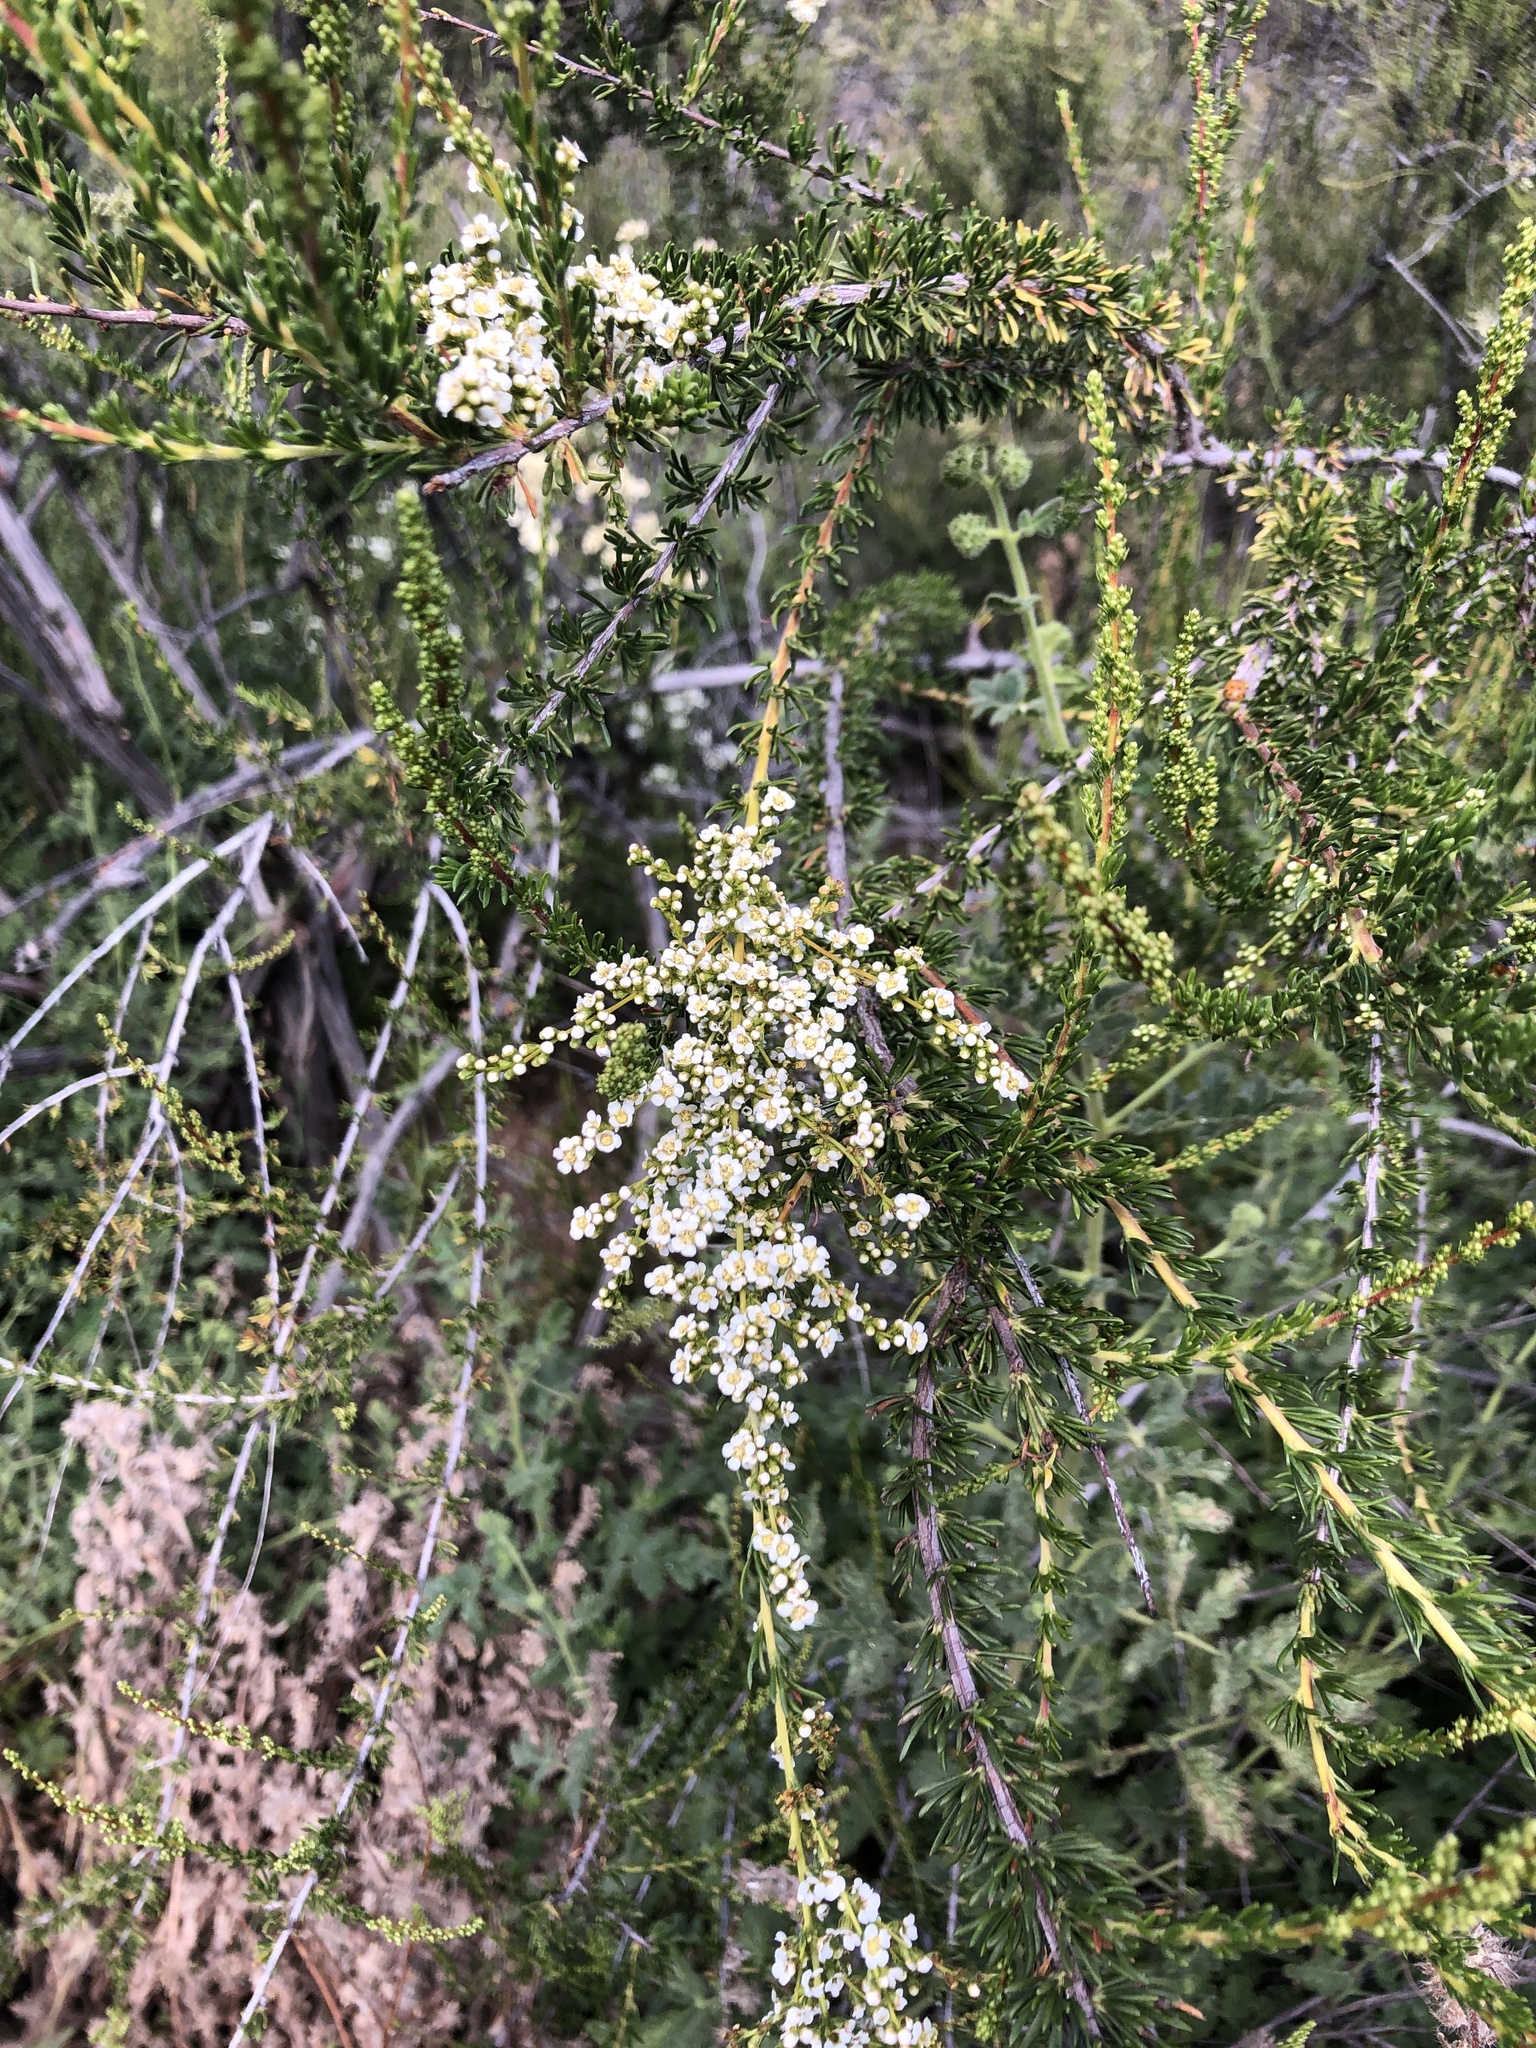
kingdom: Plantae
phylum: Tracheophyta
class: Magnoliopsida
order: Rosales
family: Rosaceae
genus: Adenostoma
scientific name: Adenostoma fasciculatum
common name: Chamise
